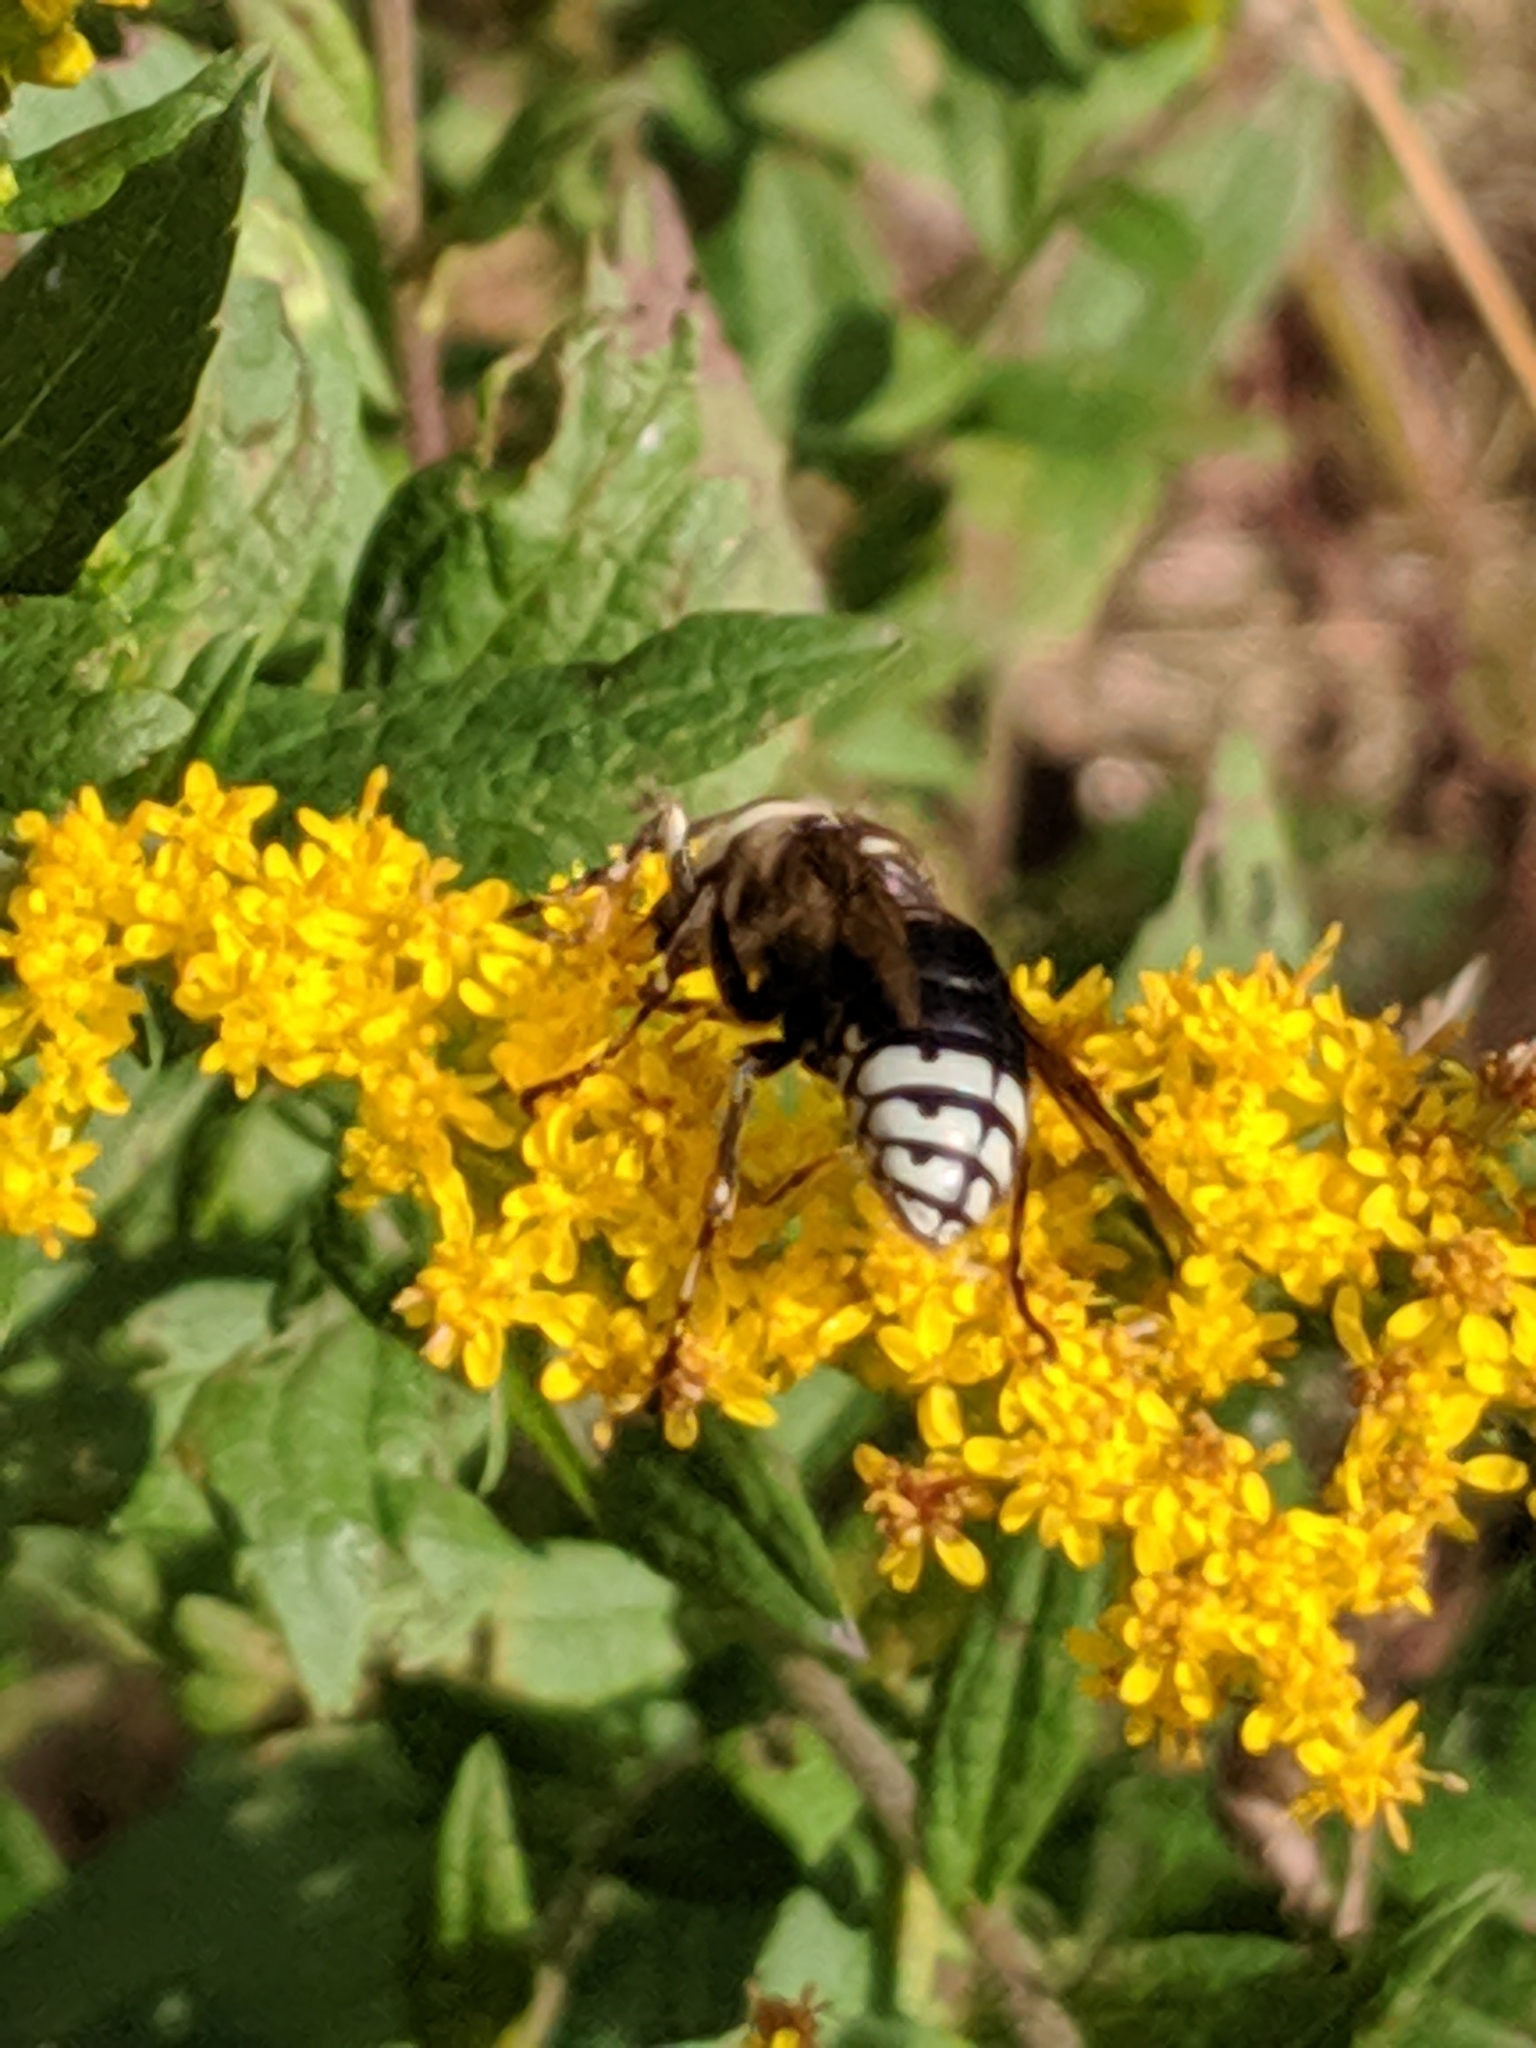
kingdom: Animalia
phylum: Arthropoda
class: Insecta
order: Hymenoptera
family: Vespidae
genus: Dolichovespula
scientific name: Dolichovespula maculata
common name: Bald-faced hornet
